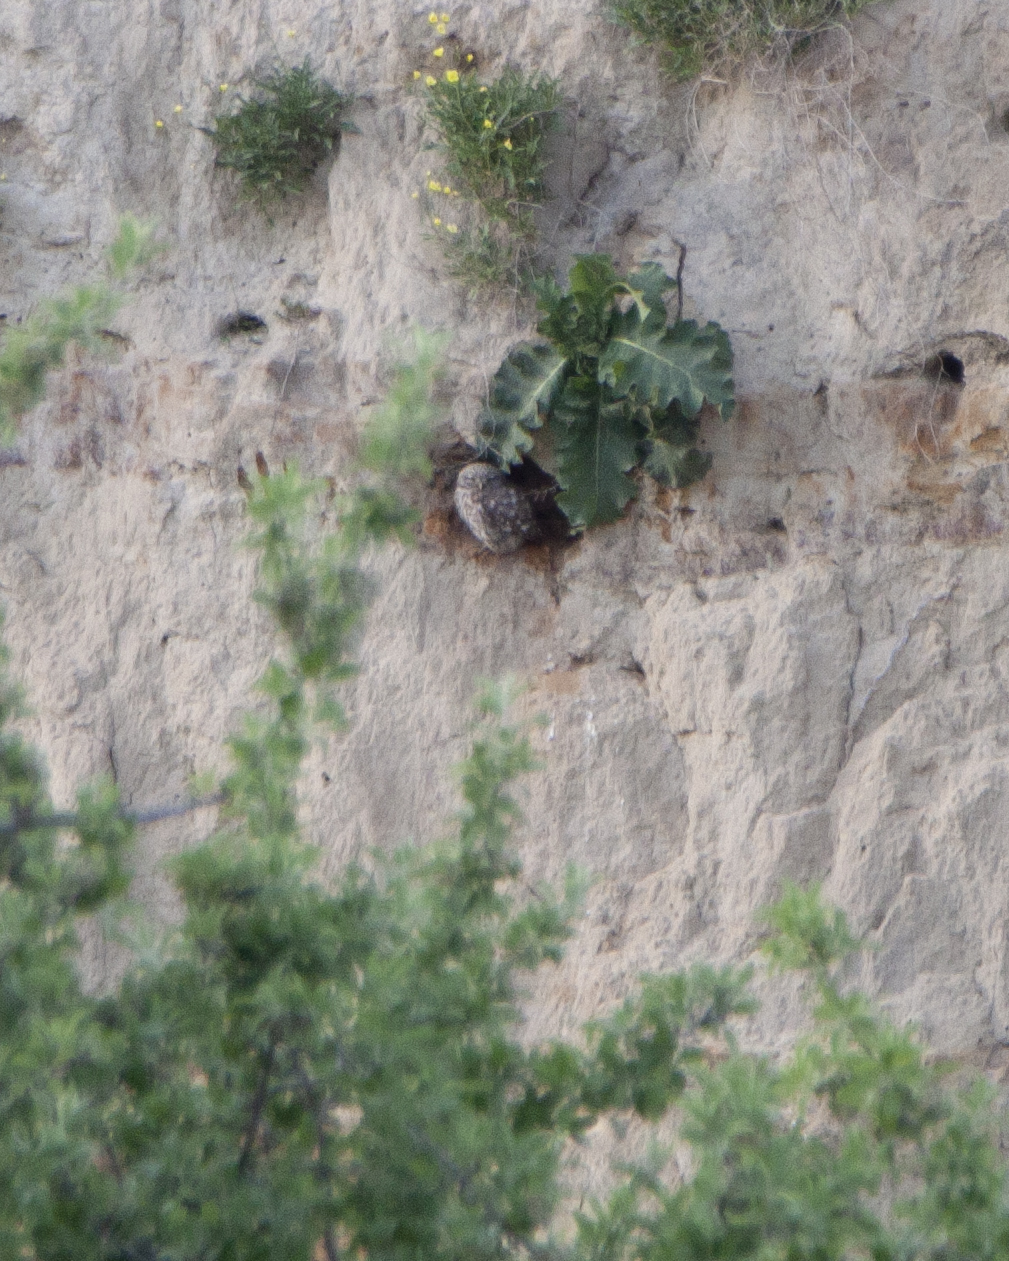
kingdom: Animalia
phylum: Chordata
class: Aves
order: Strigiformes
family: Strigidae
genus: Athene
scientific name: Athene noctua
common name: Little owl
